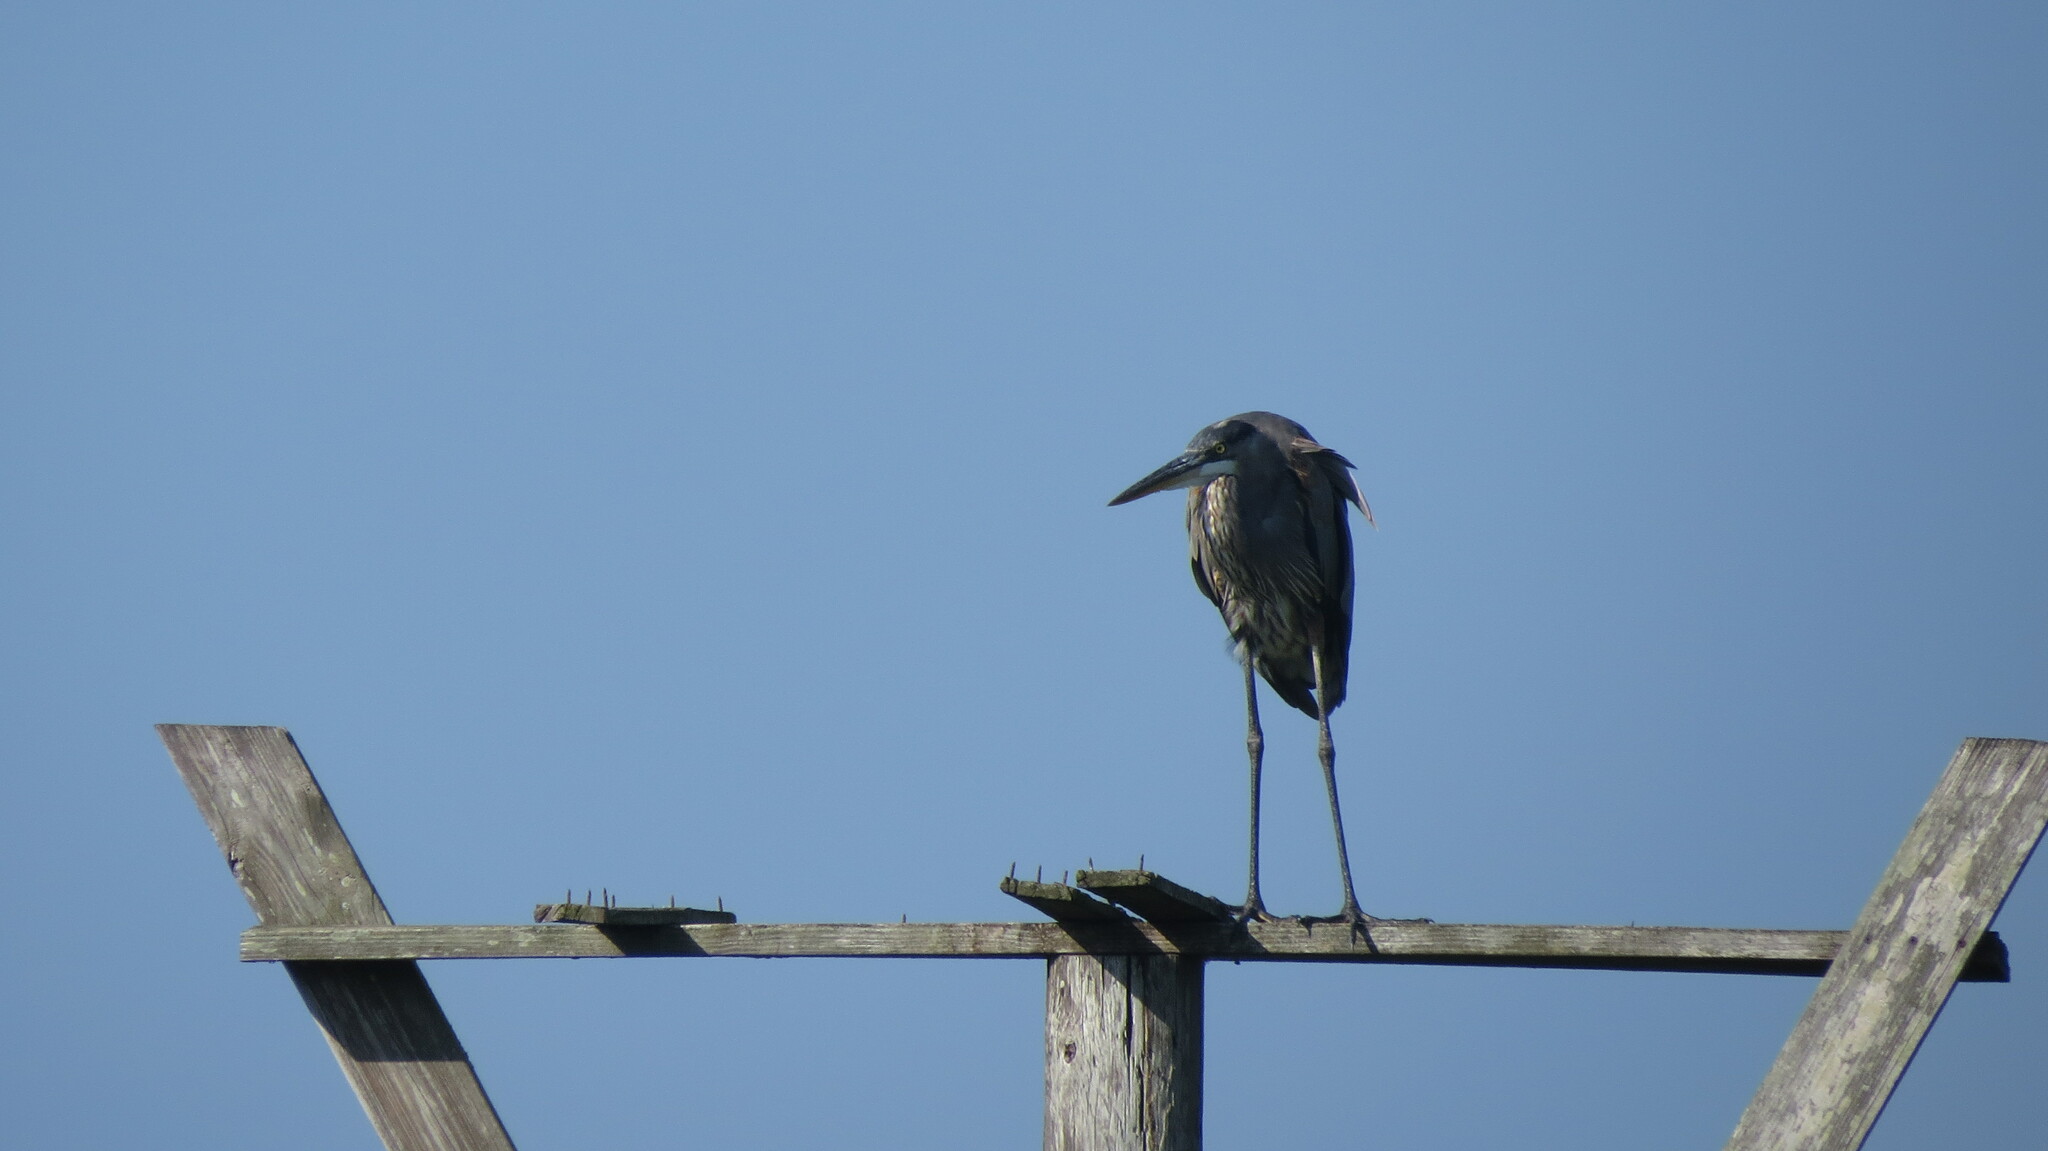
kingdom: Animalia
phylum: Chordata
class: Aves
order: Pelecaniformes
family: Ardeidae
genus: Ardea
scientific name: Ardea herodias
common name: Great blue heron
